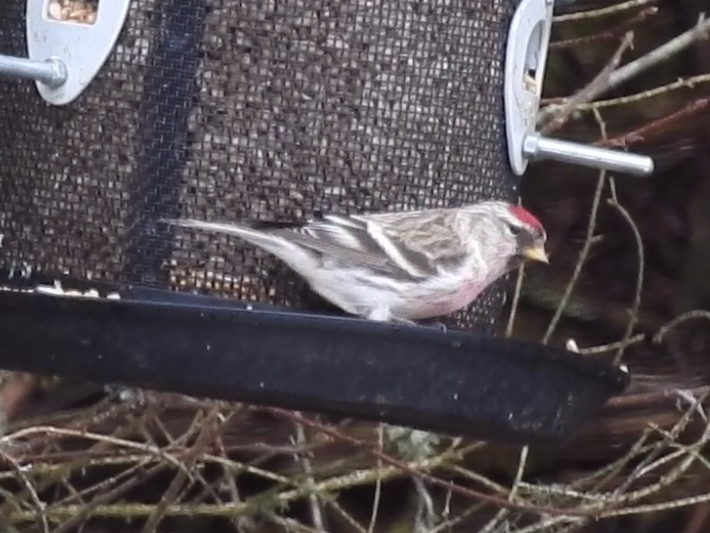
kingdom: Animalia
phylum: Chordata
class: Aves
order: Passeriformes
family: Fringillidae
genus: Acanthis
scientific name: Acanthis flammea
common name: Common redpoll
